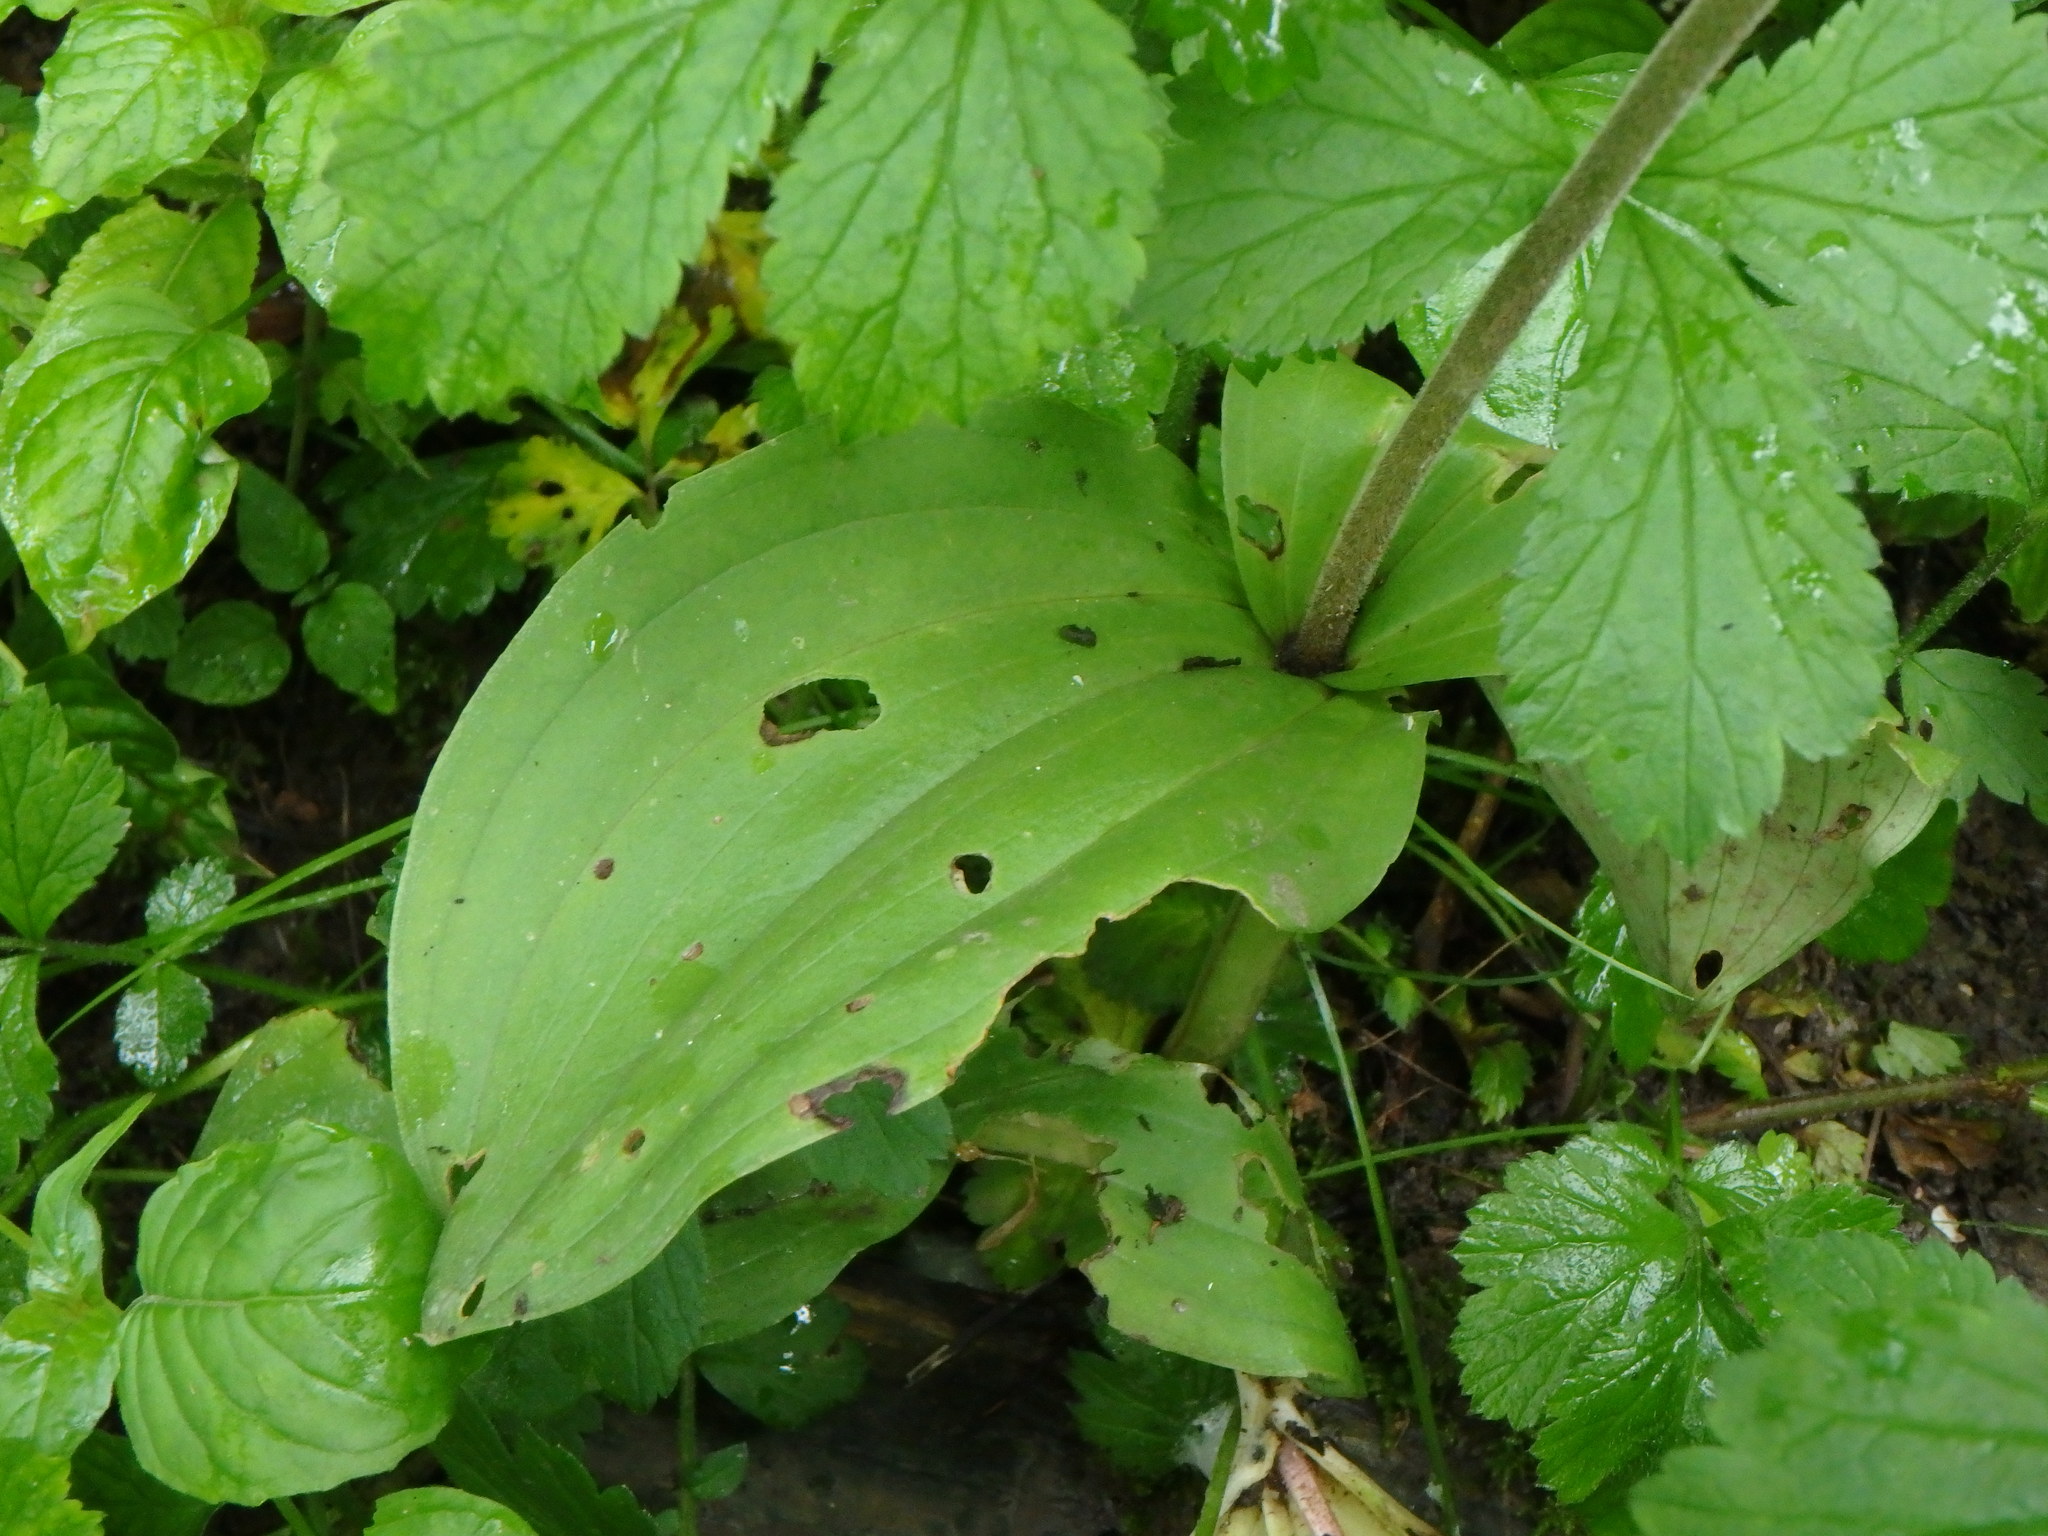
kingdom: Plantae
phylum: Tracheophyta
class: Liliopsida
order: Asparagales
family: Orchidaceae
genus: Neottia
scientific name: Neottia ovata
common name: Common twayblade
